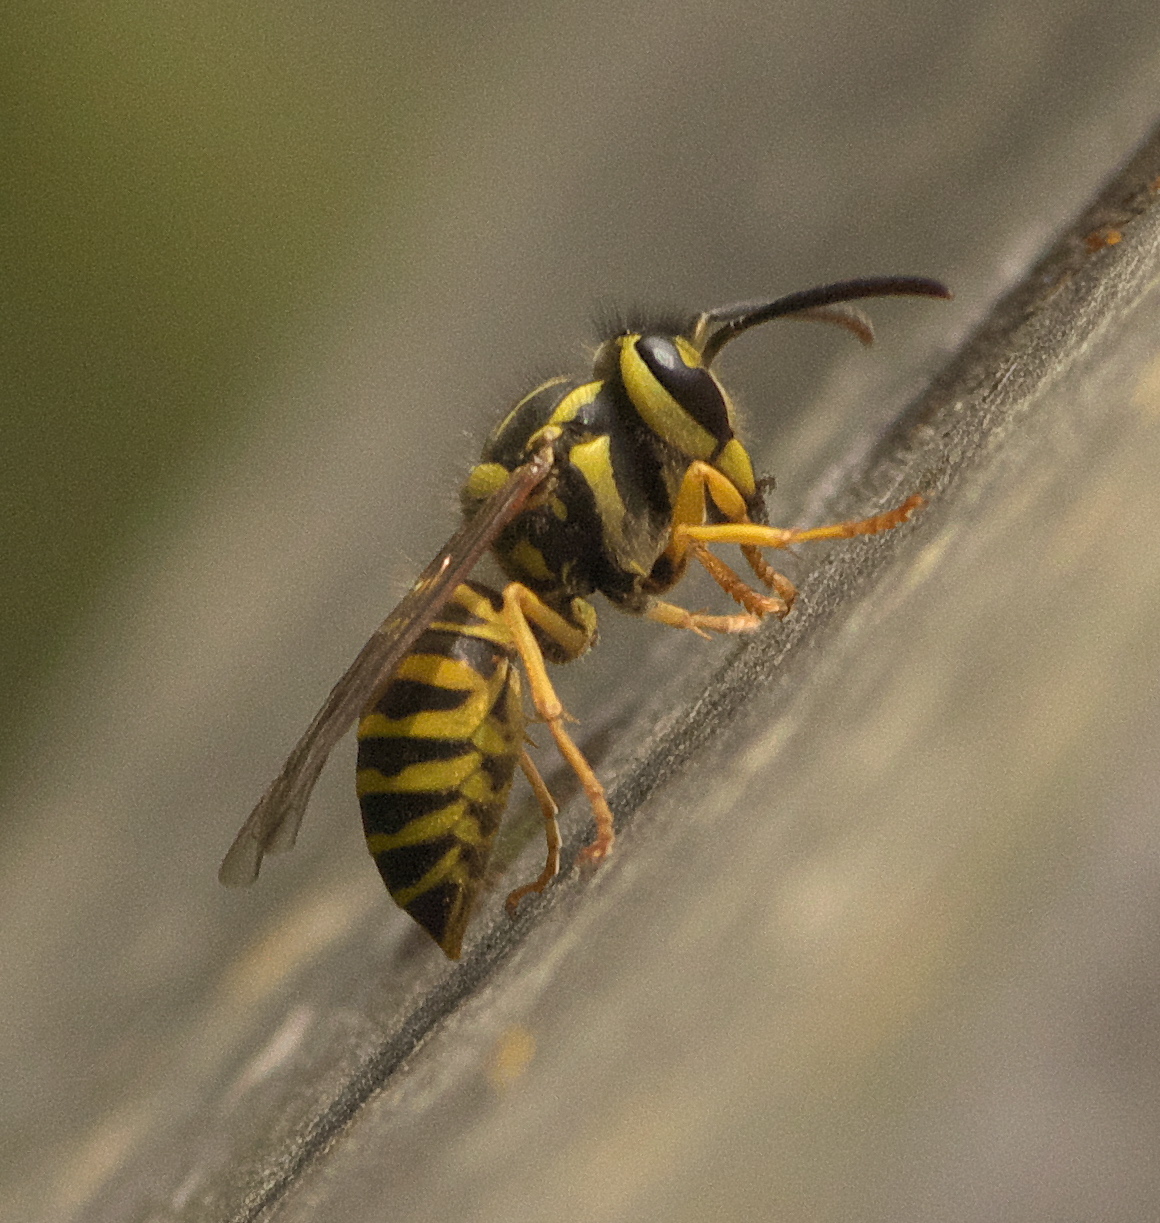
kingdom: Animalia
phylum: Arthropoda
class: Insecta
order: Hymenoptera
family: Vespidae
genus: Vespula
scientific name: Vespula squamosa
